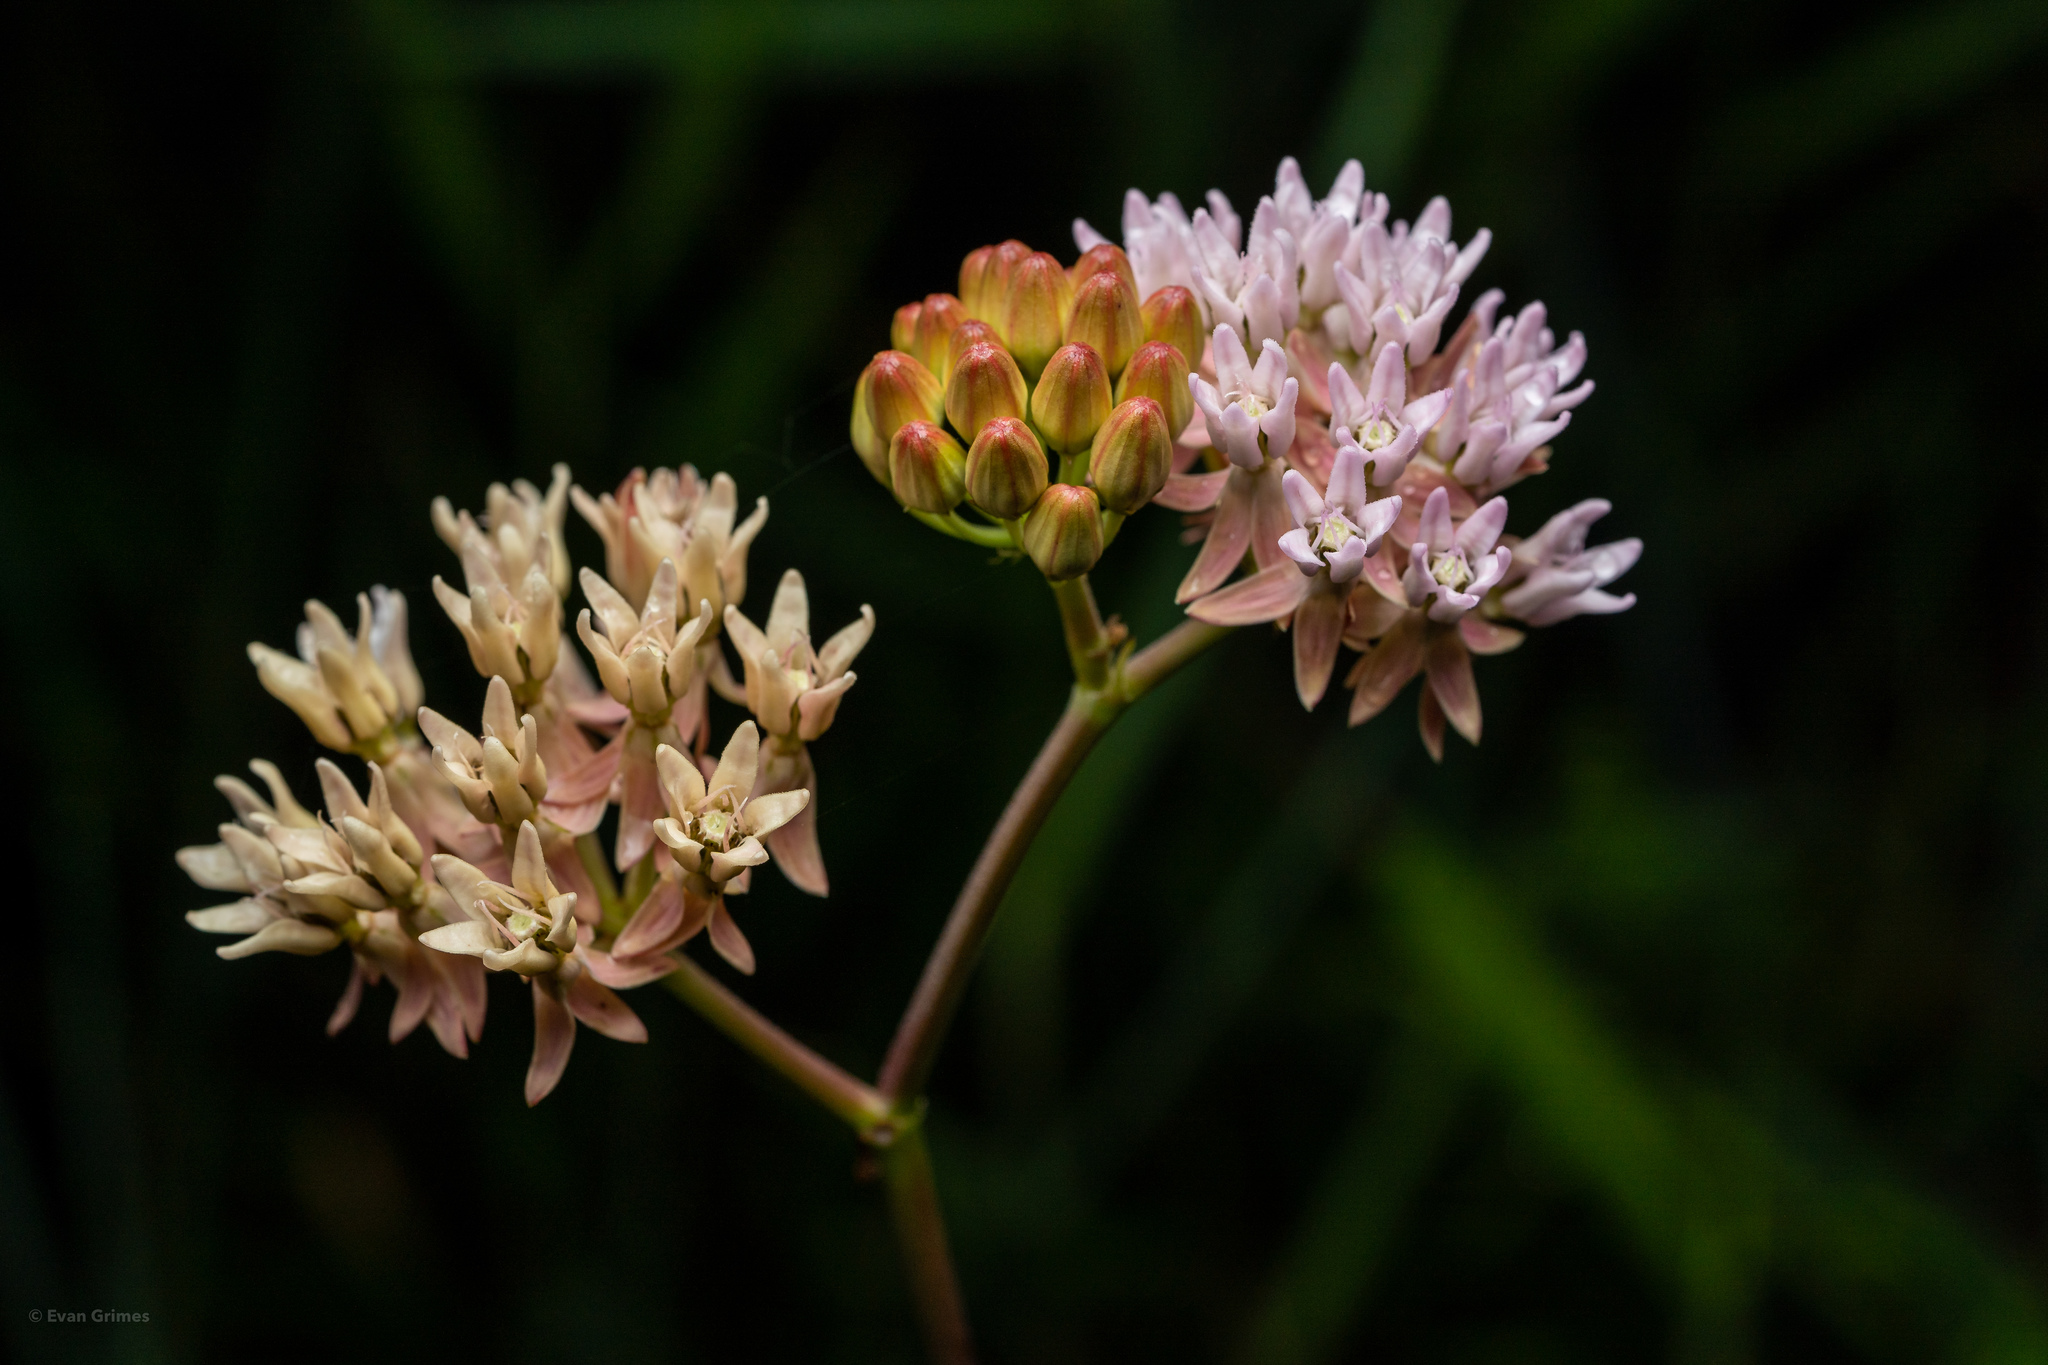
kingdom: Plantae
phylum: Tracheophyta
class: Magnoliopsida
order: Gentianales
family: Apocynaceae
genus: Asclepias
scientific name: Asclepias rubra
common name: Red milkweed
